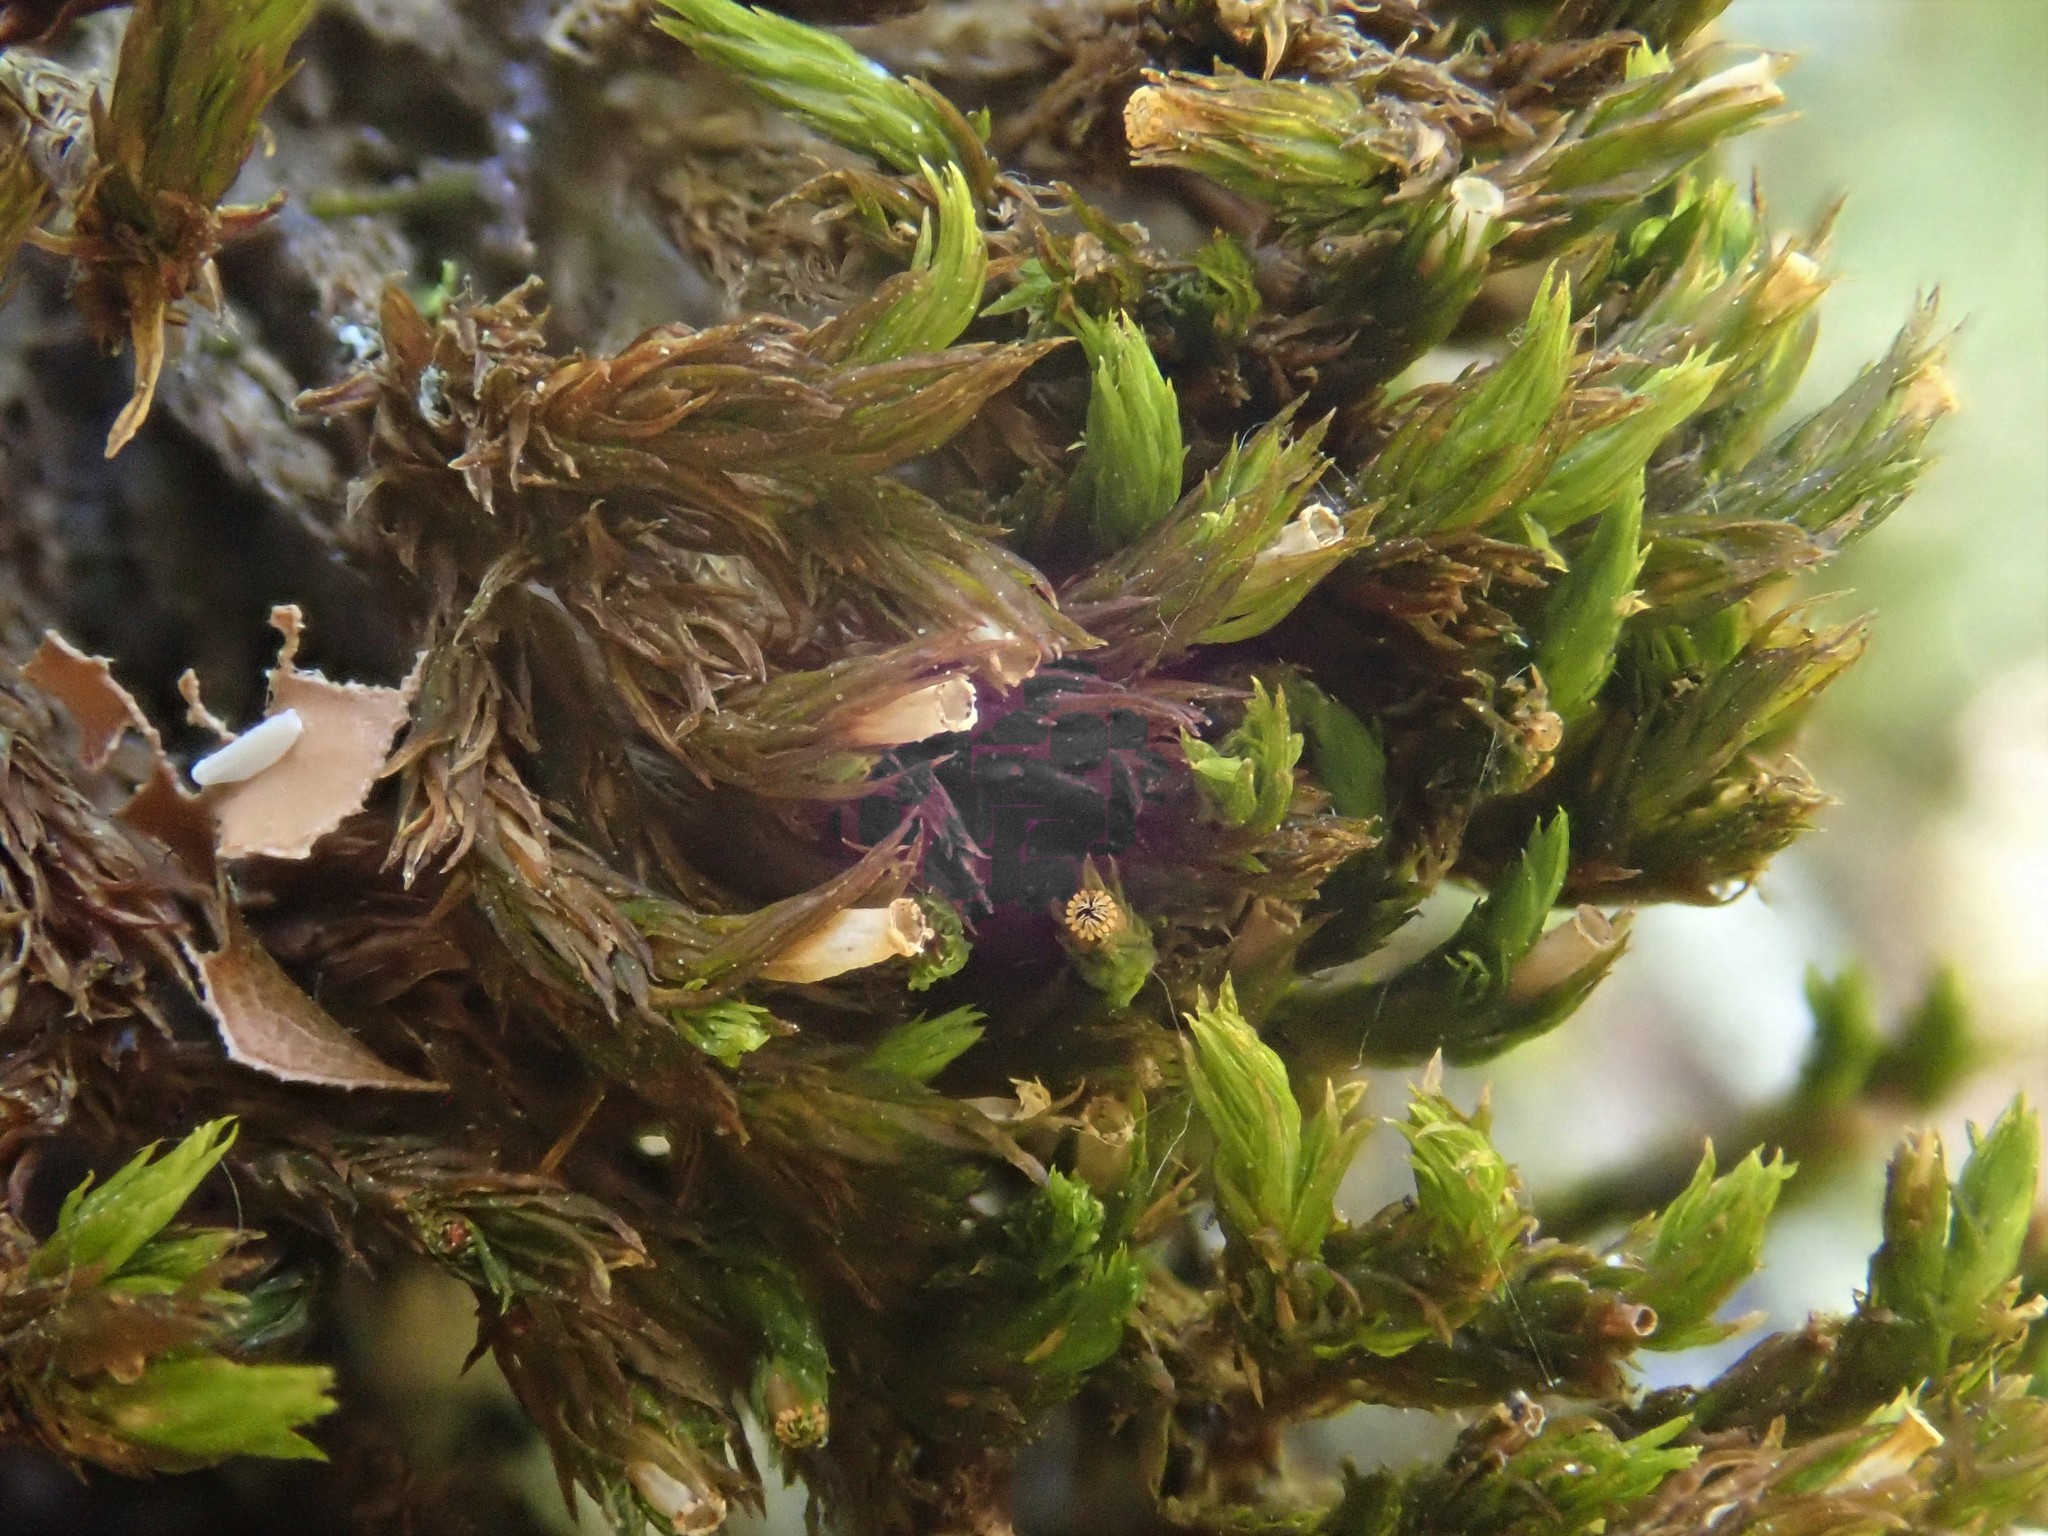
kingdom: Plantae
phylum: Bryophyta
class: Bryopsida
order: Orthotrichales
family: Orthotrichaceae
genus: Lewinskya
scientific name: Lewinskya striata
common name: Shaw's bristle-moss
